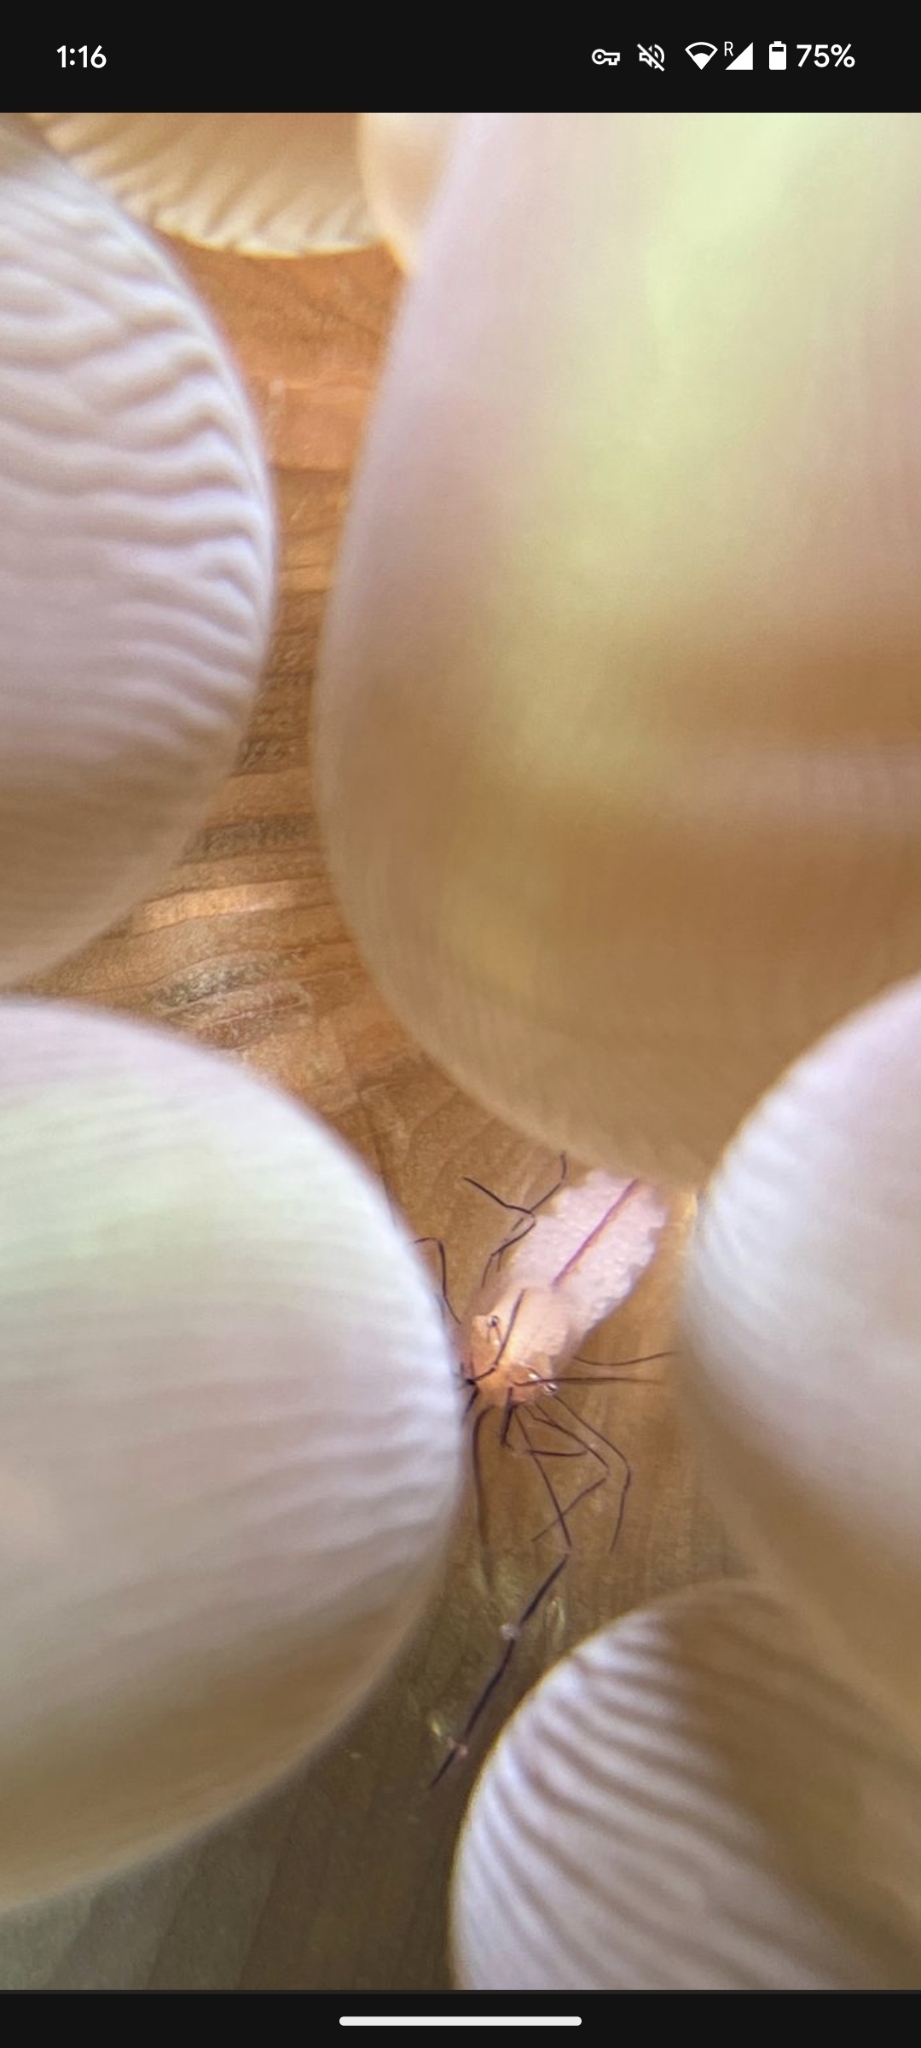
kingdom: Animalia
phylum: Arthropoda
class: Malacostraca
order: Decapoda
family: Palaemonidae
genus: Vir
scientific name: Vir philippinensis
